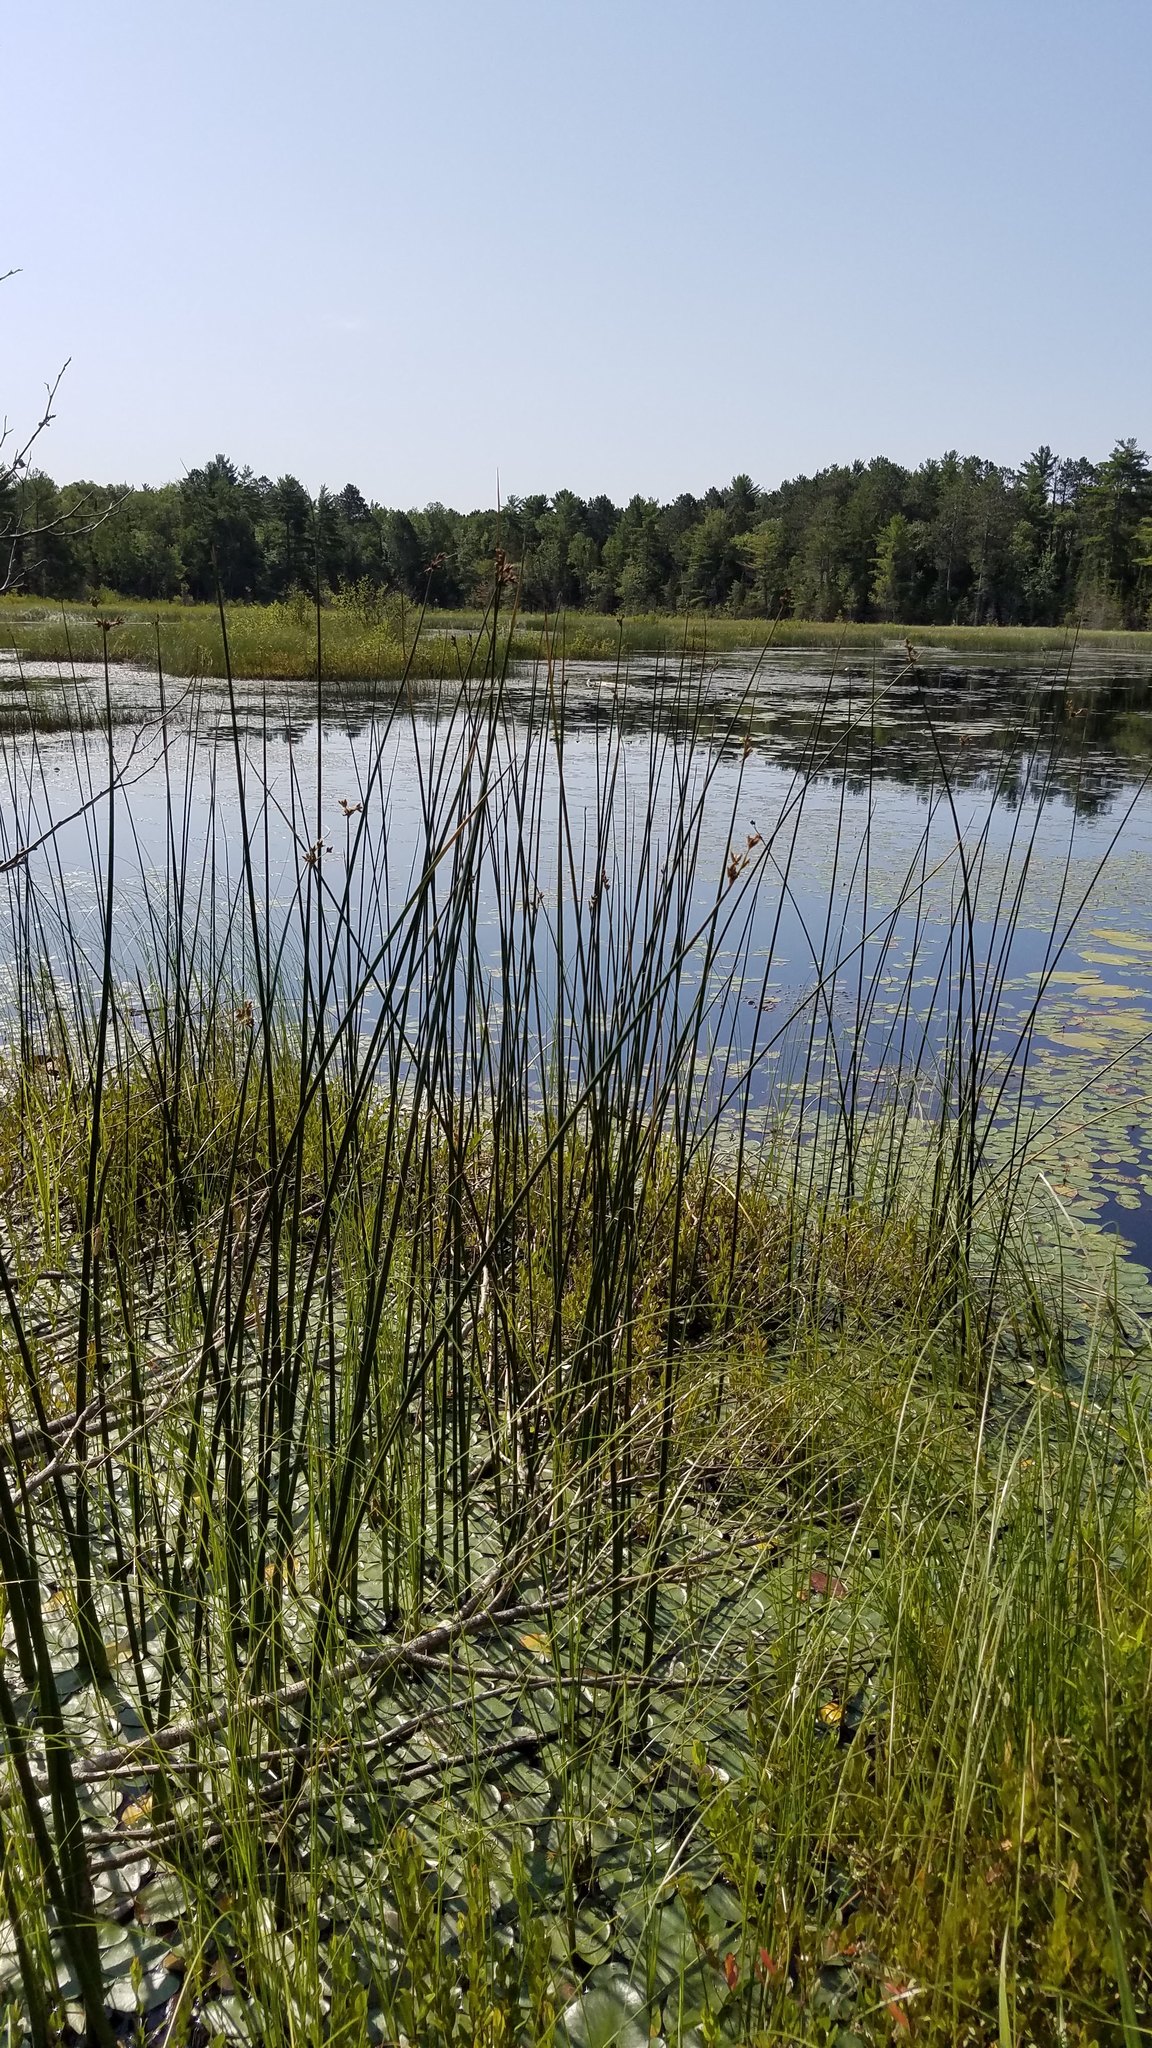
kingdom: Plantae
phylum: Tracheophyta
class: Liliopsida
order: Poales
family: Cyperaceae
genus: Schoenoplectus
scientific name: Schoenoplectus tabernaemontani
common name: Grey club-rush
